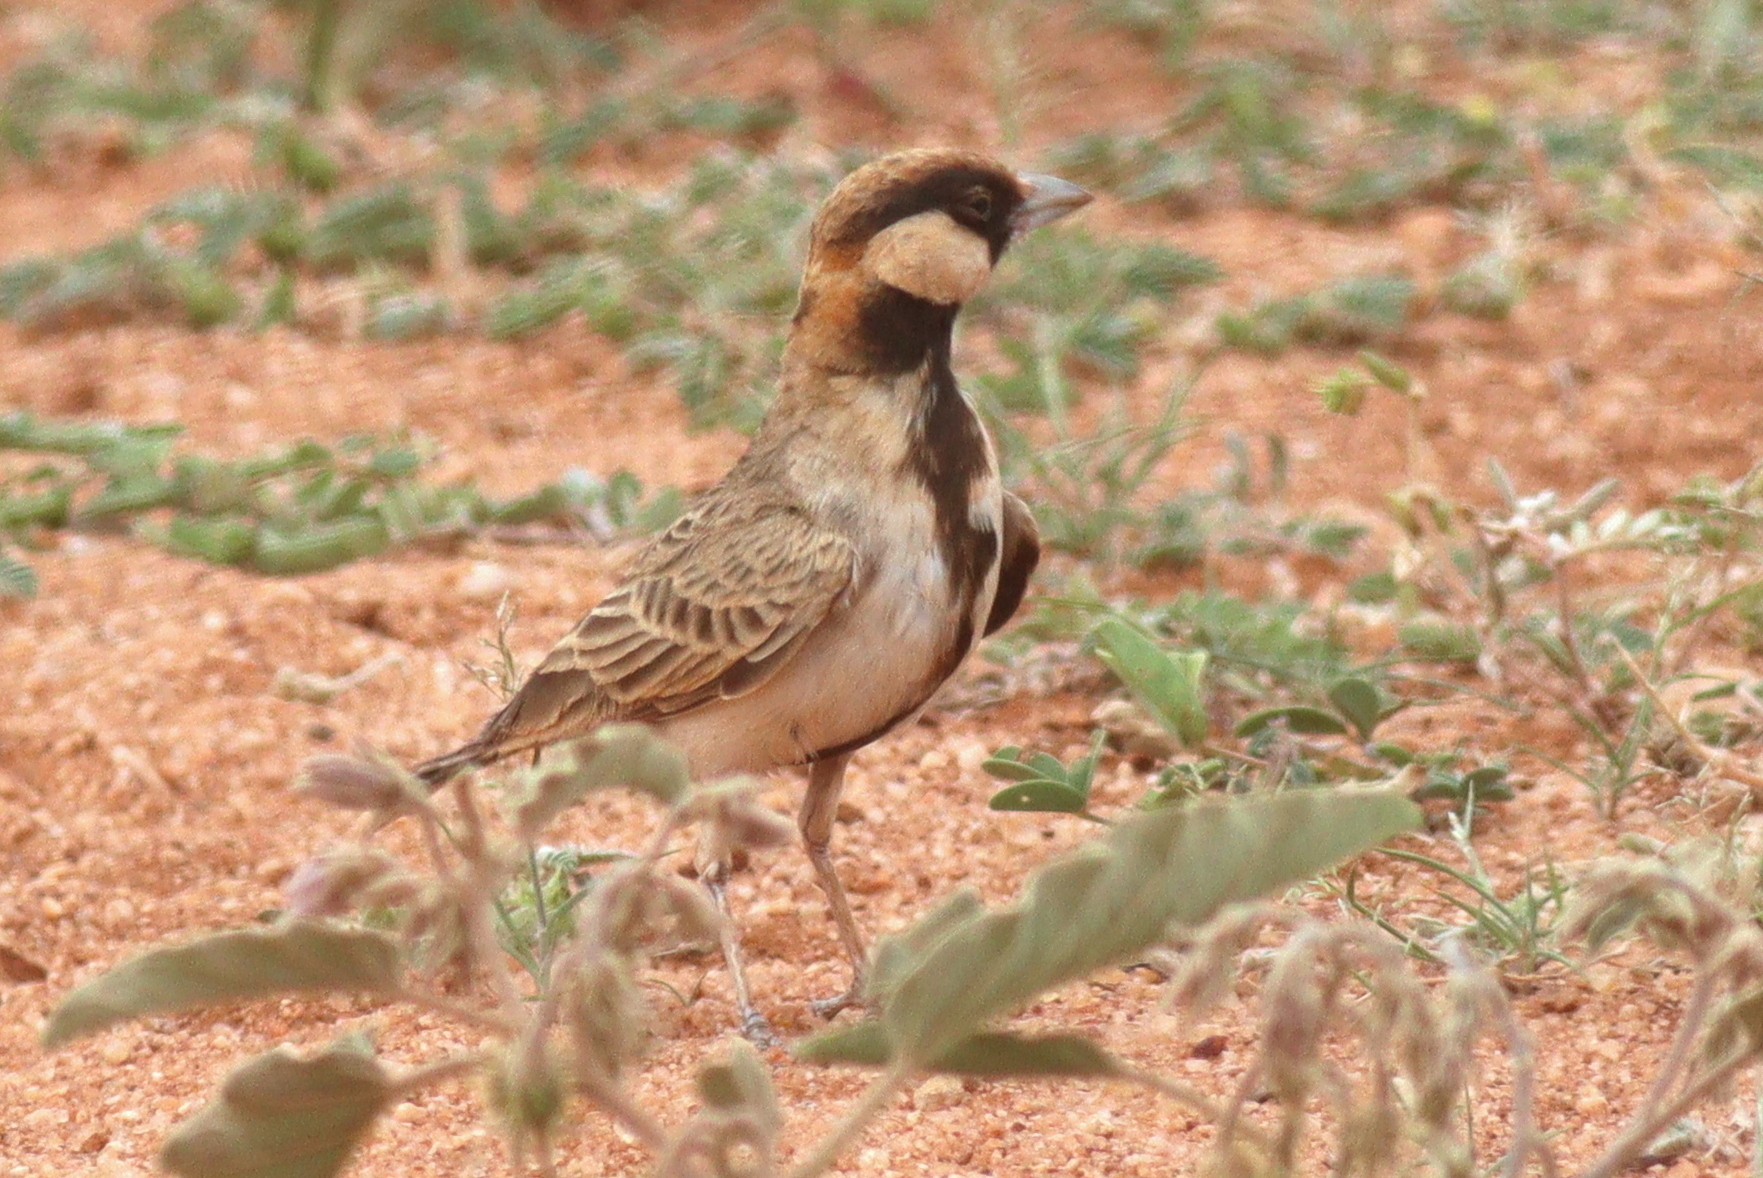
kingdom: Animalia
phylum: Chordata
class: Aves
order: Passeriformes
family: Alaudidae
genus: Eremopterix
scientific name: Eremopterix leucopareia
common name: Fischer's sparrow-lark
